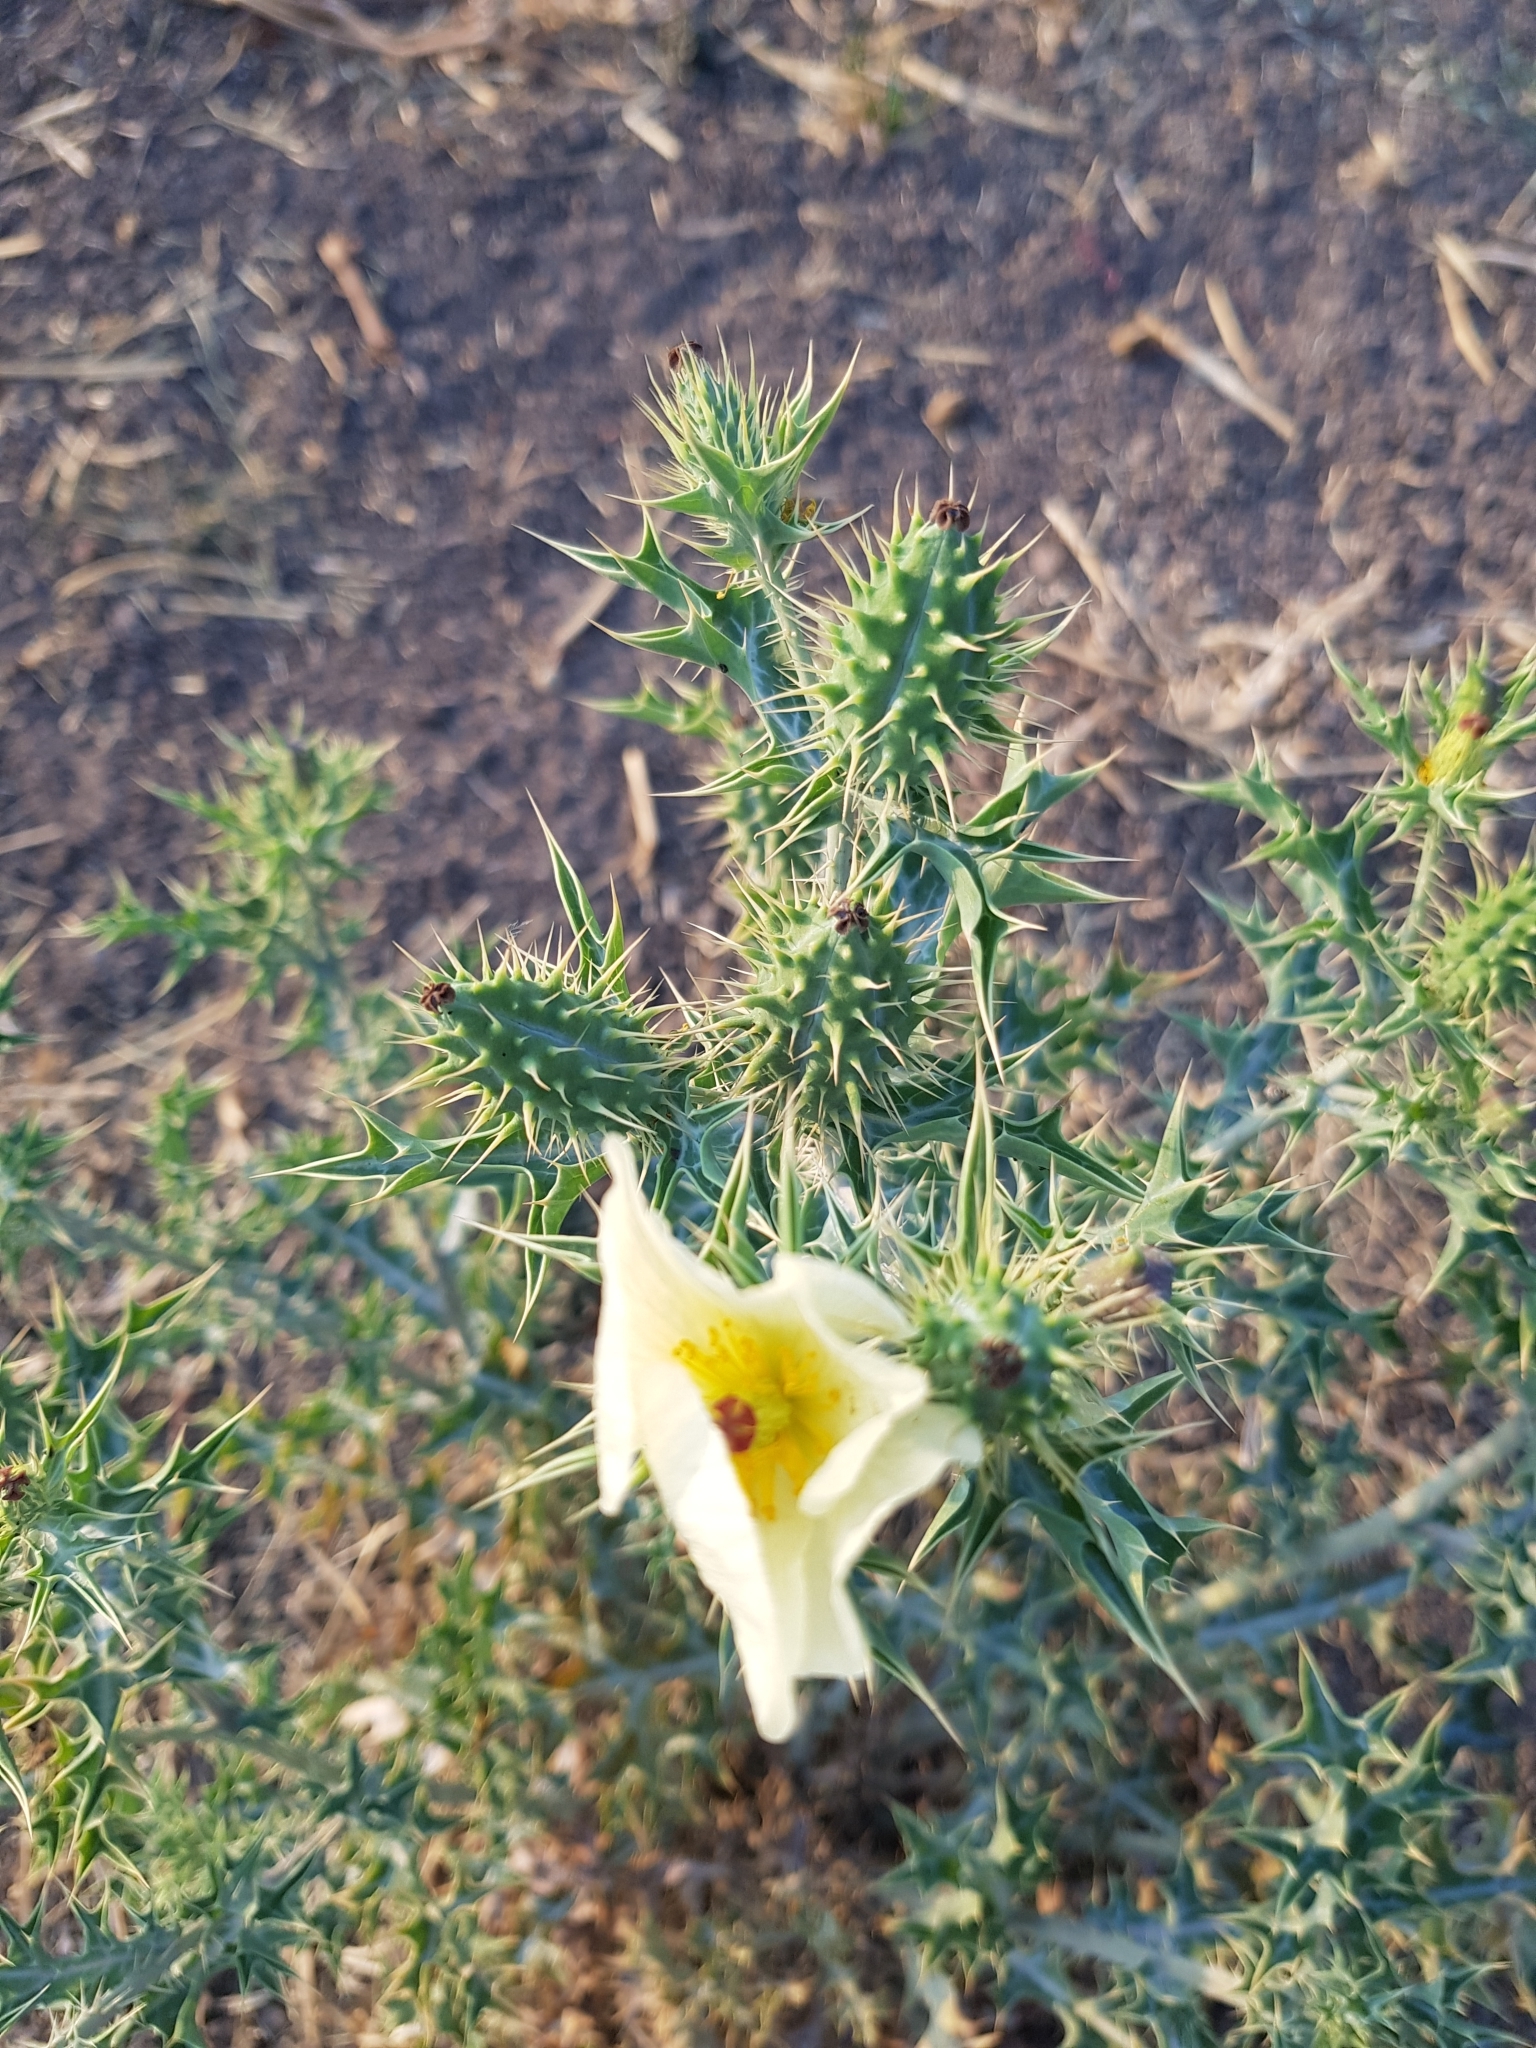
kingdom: Plantae
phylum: Tracheophyta
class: Magnoliopsida
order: Ranunculales
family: Papaveraceae
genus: Argemone
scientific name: Argemone ochroleuca
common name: White-flower mexican-poppy
